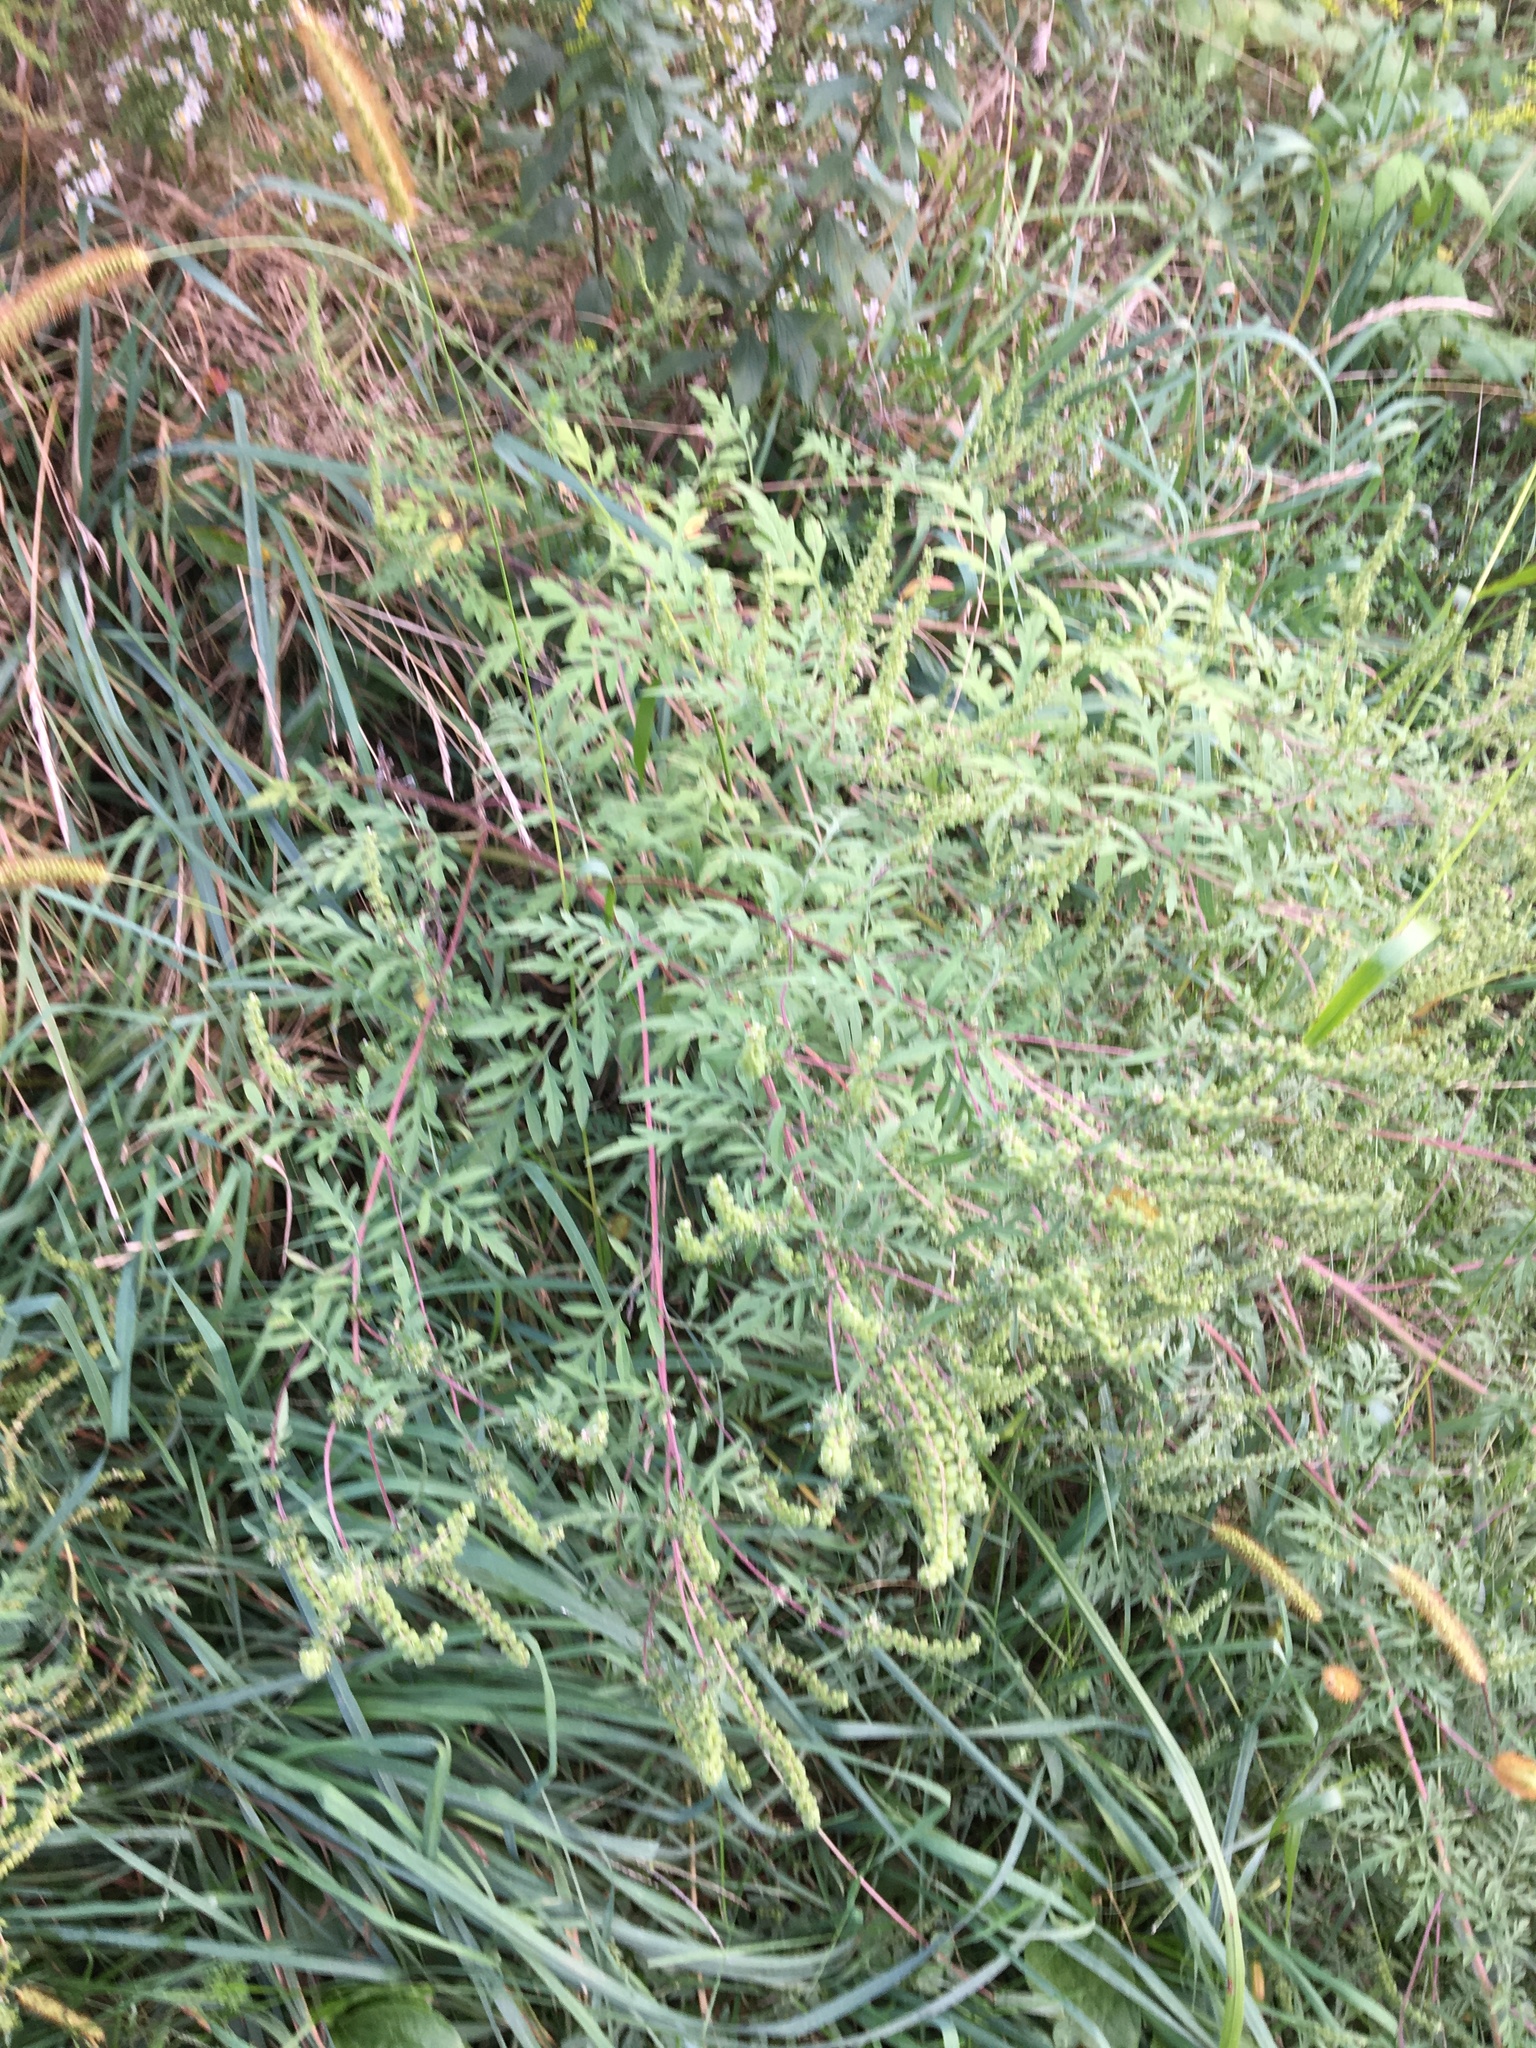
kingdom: Plantae
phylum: Tracheophyta
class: Magnoliopsida
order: Asterales
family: Asteraceae
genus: Ambrosia
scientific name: Ambrosia artemisiifolia
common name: Annual ragweed
